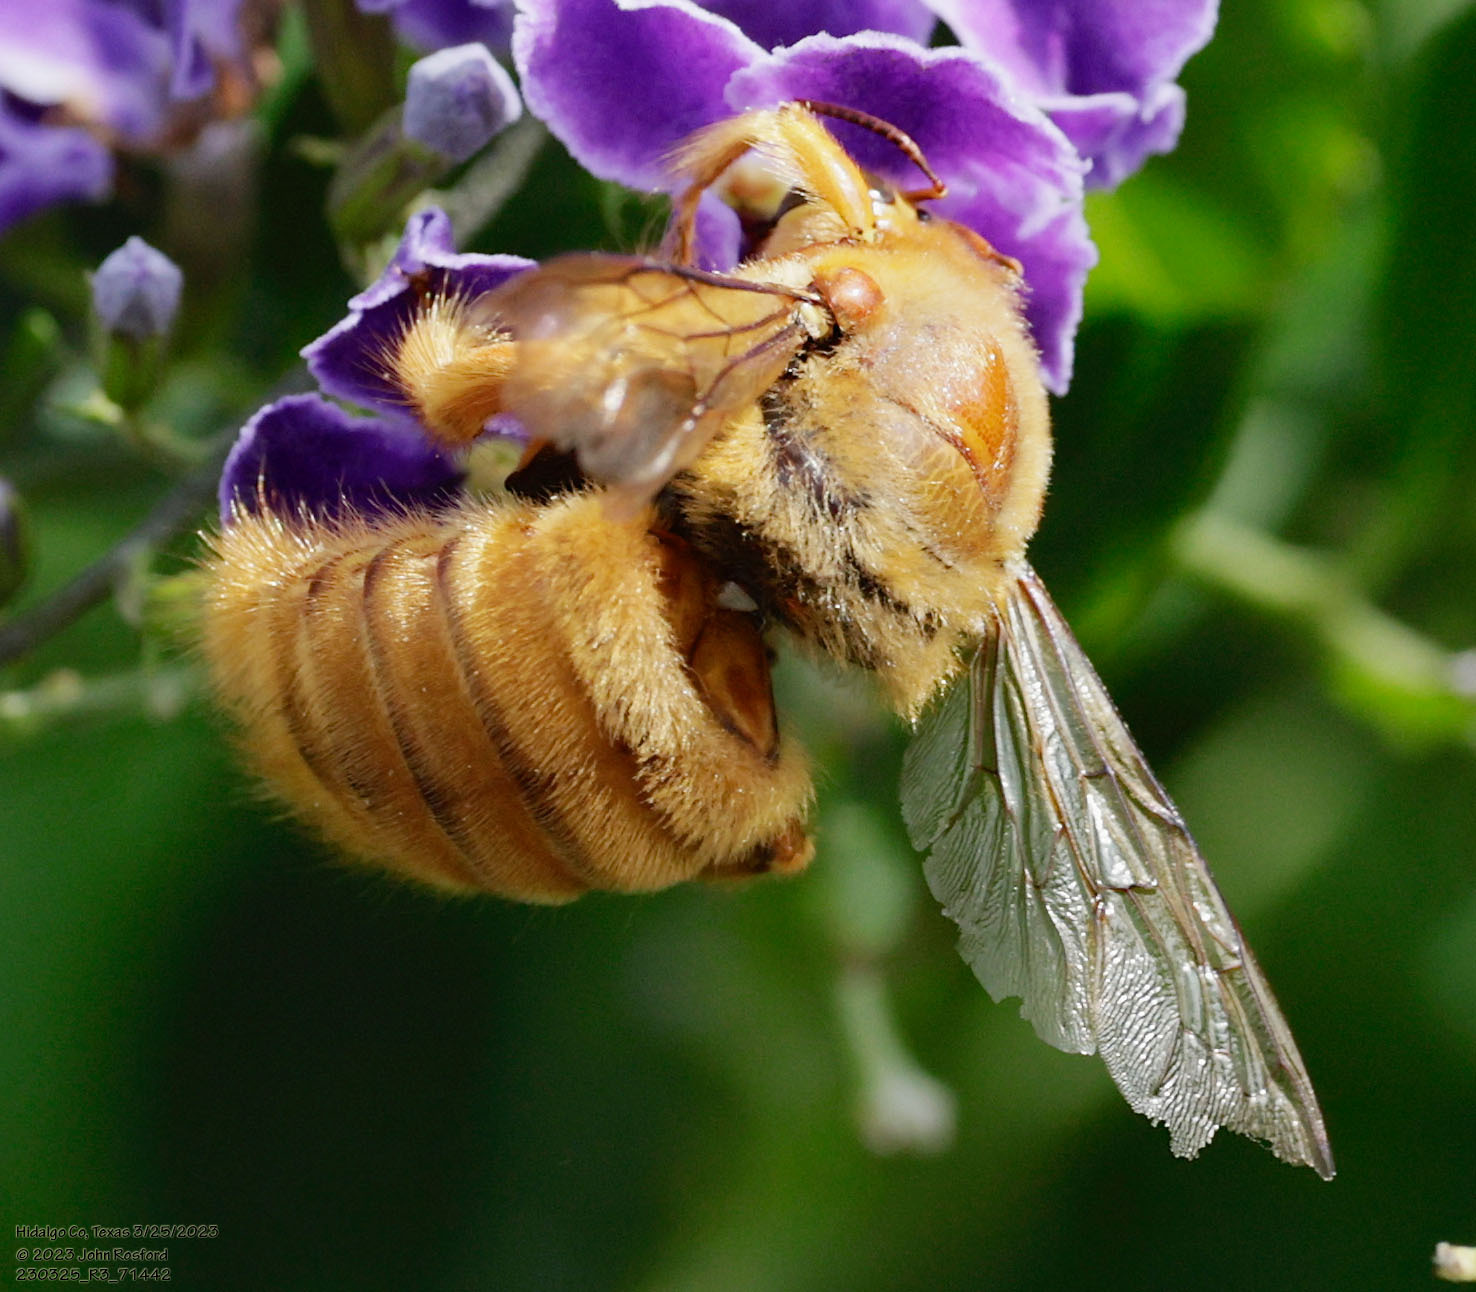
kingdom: Animalia
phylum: Arthropoda
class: Insecta
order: Hymenoptera
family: Apidae
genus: Xylocopa
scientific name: Xylocopa griswoldi
